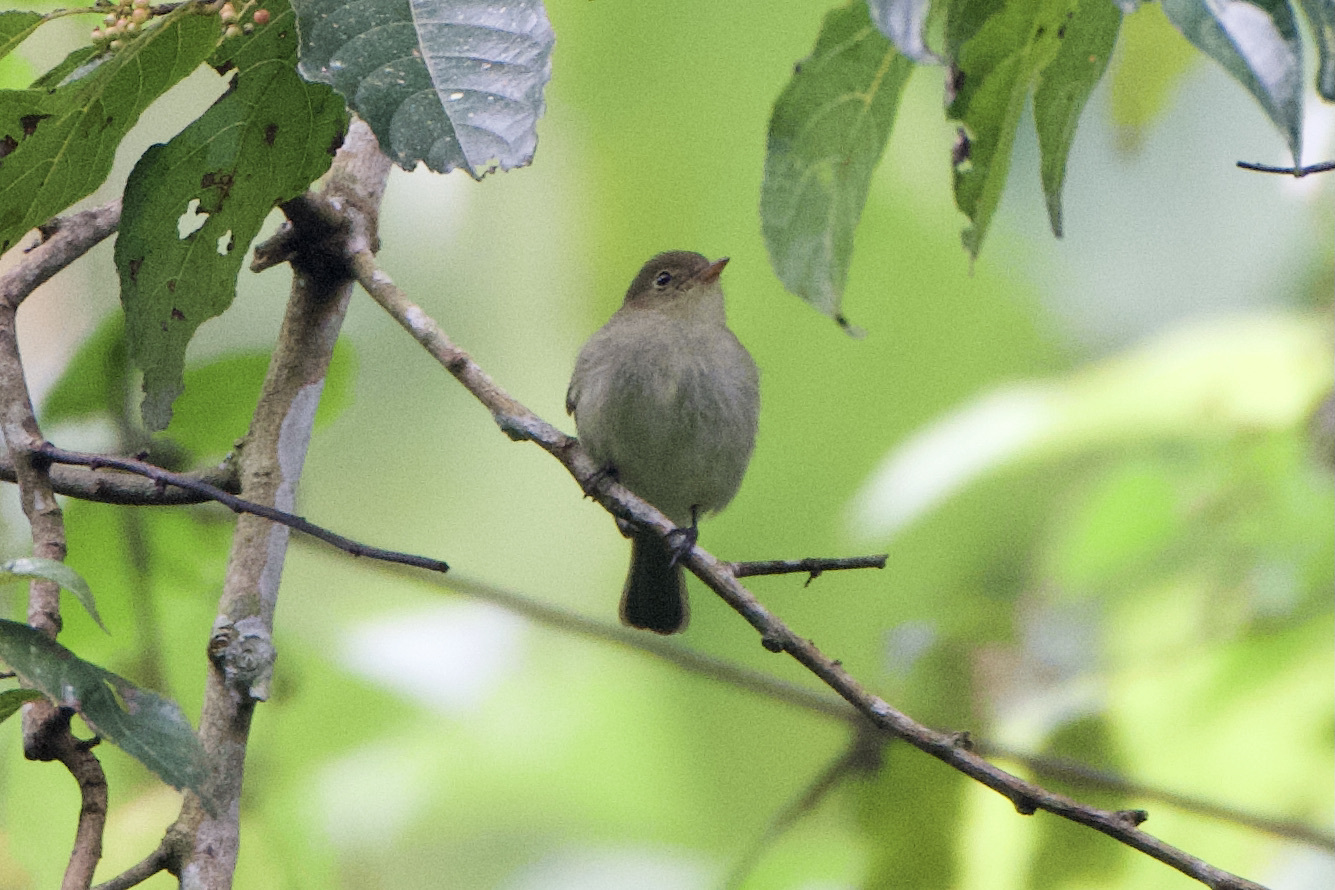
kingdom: Animalia
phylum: Chordata
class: Aves
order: Passeriformes
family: Tyrannidae
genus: Elaenia
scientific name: Elaenia frantzii
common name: Mountain elaenia
